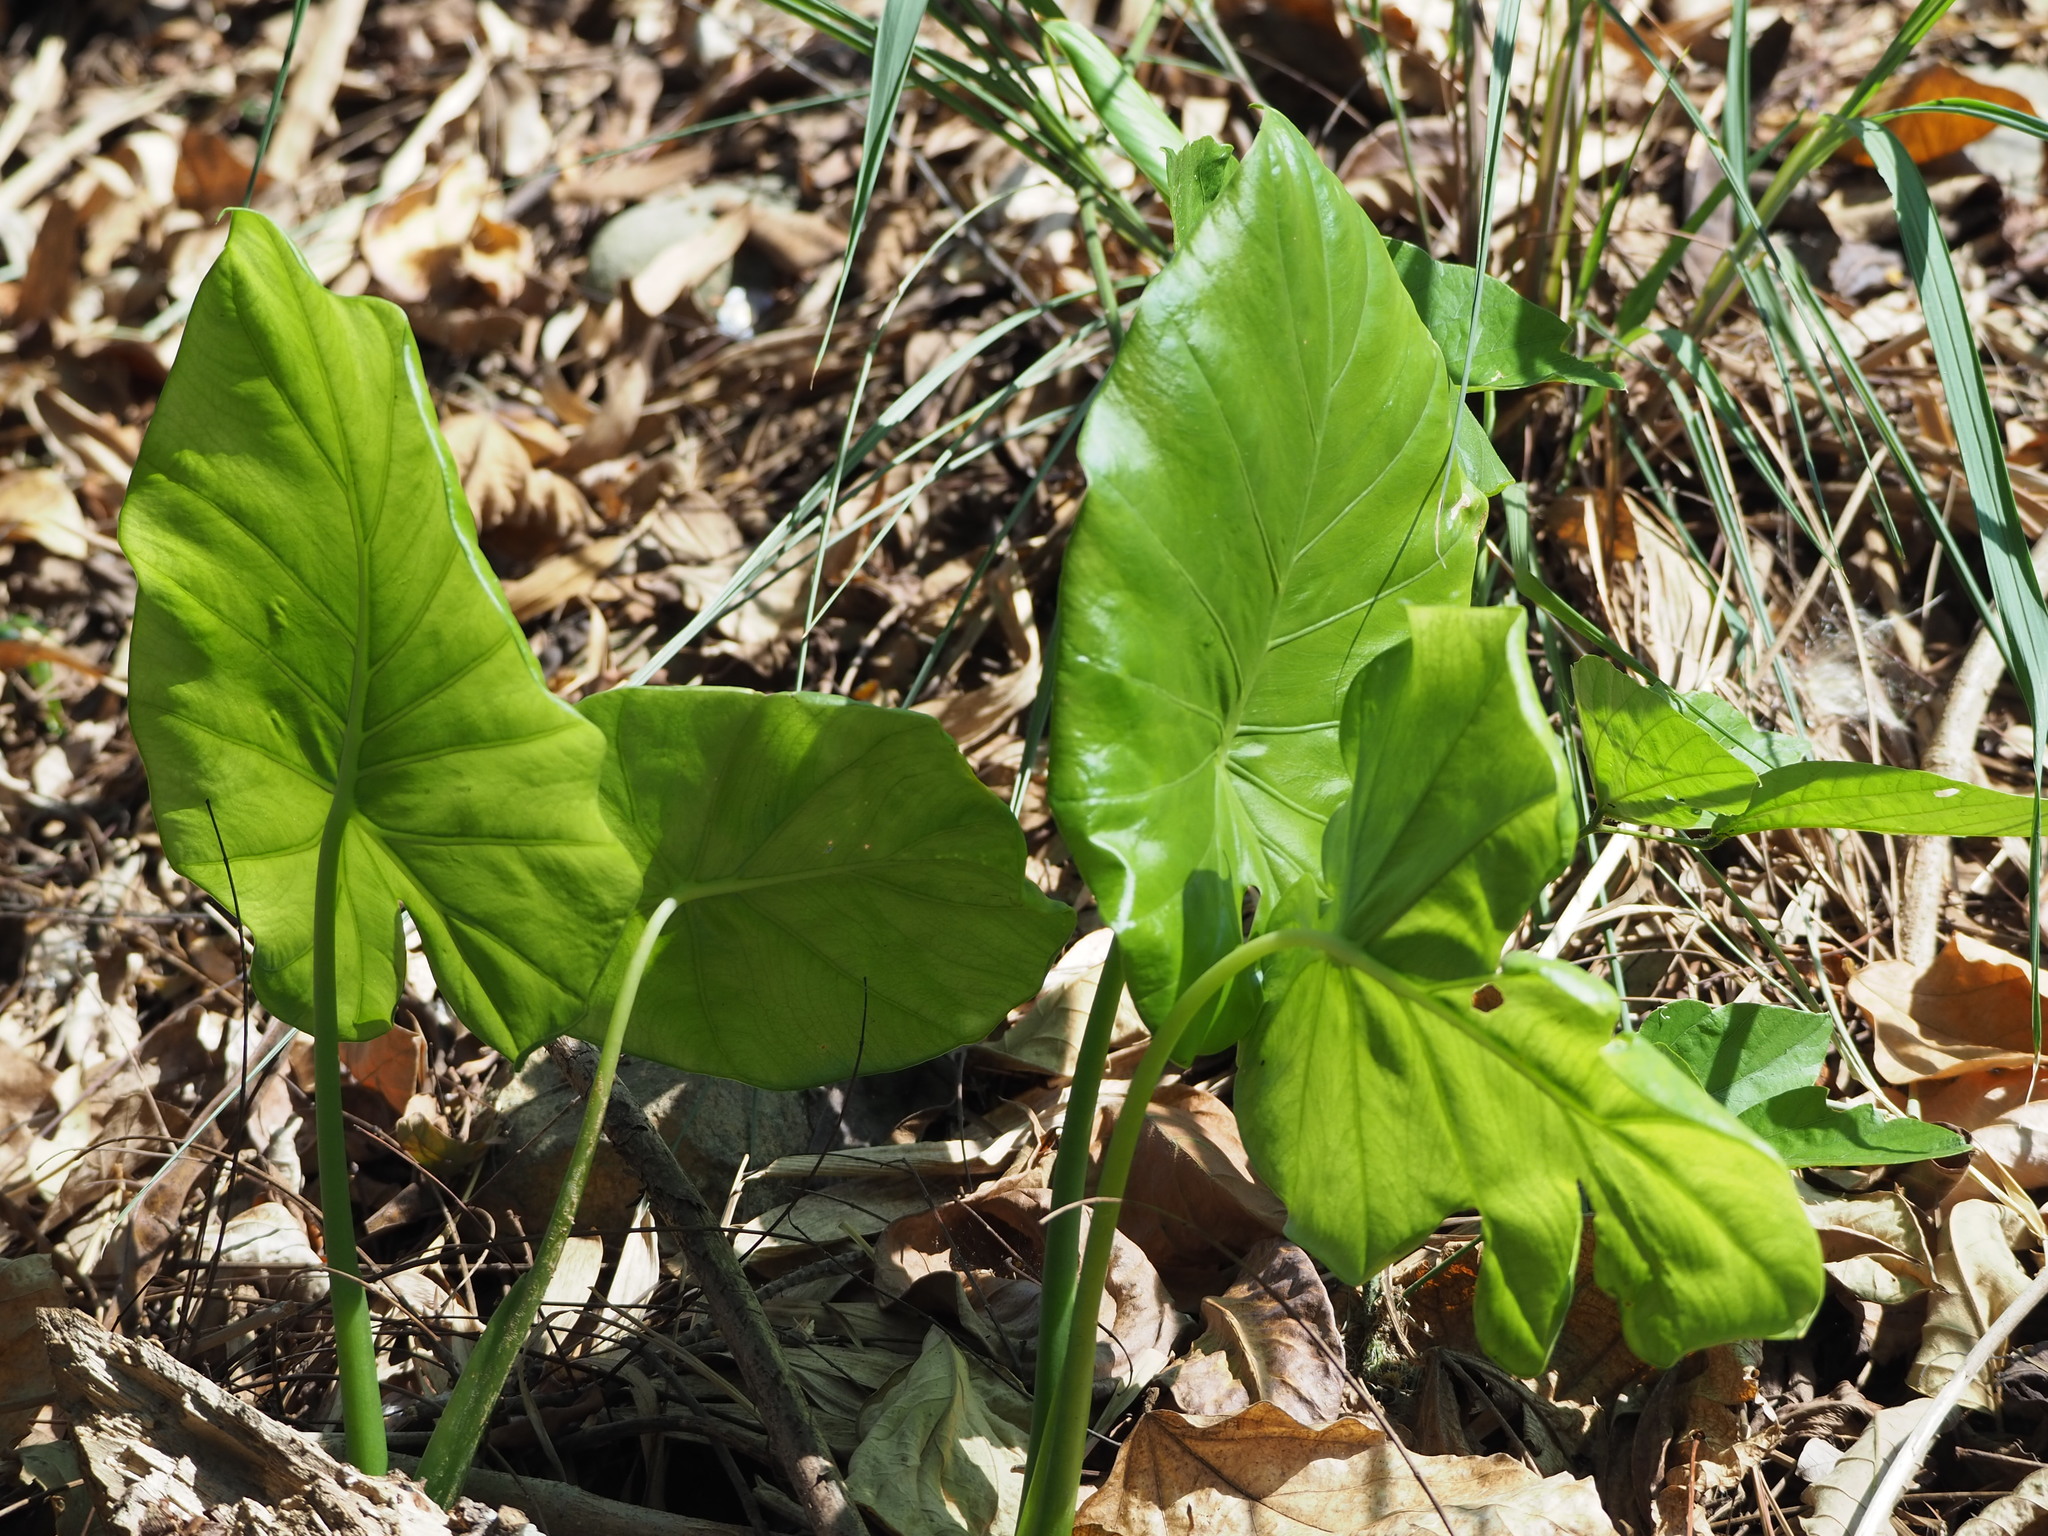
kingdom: Plantae
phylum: Tracheophyta
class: Liliopsida
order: Alismatales
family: Araceae
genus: Alocasia
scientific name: Alocasia odora
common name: Asian taro
